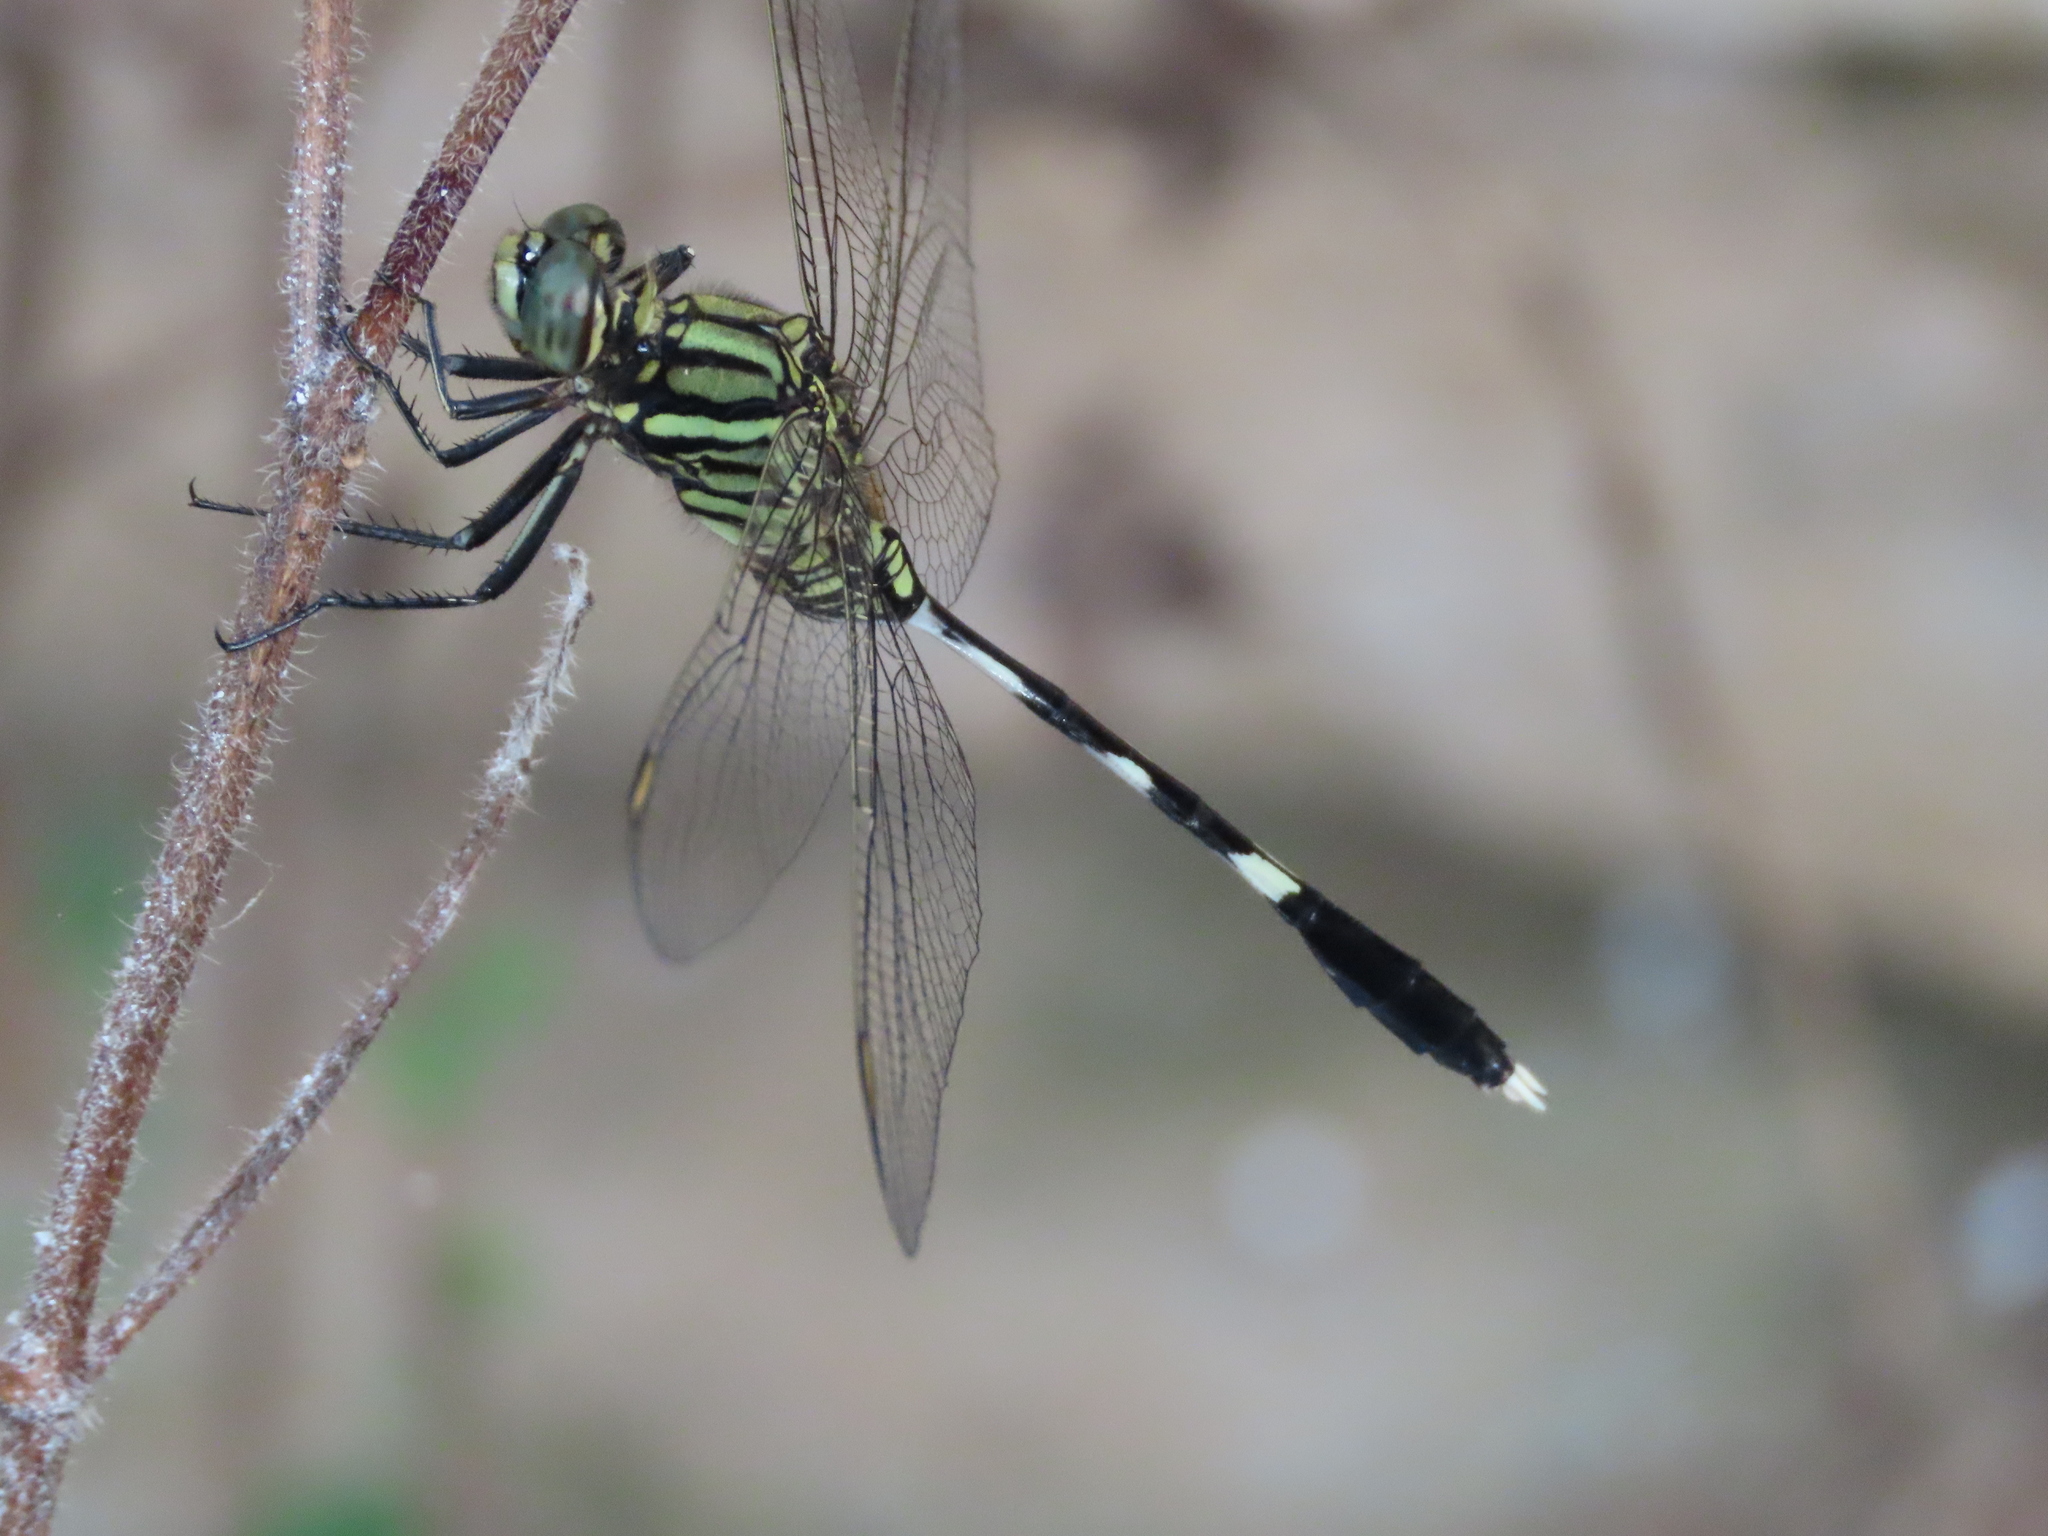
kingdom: Animalia
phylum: Arthropoda
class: Insecta
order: Odonata
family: Libellulidae
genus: Orthetrum
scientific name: Orthetrum sabina
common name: Slender skimmer
